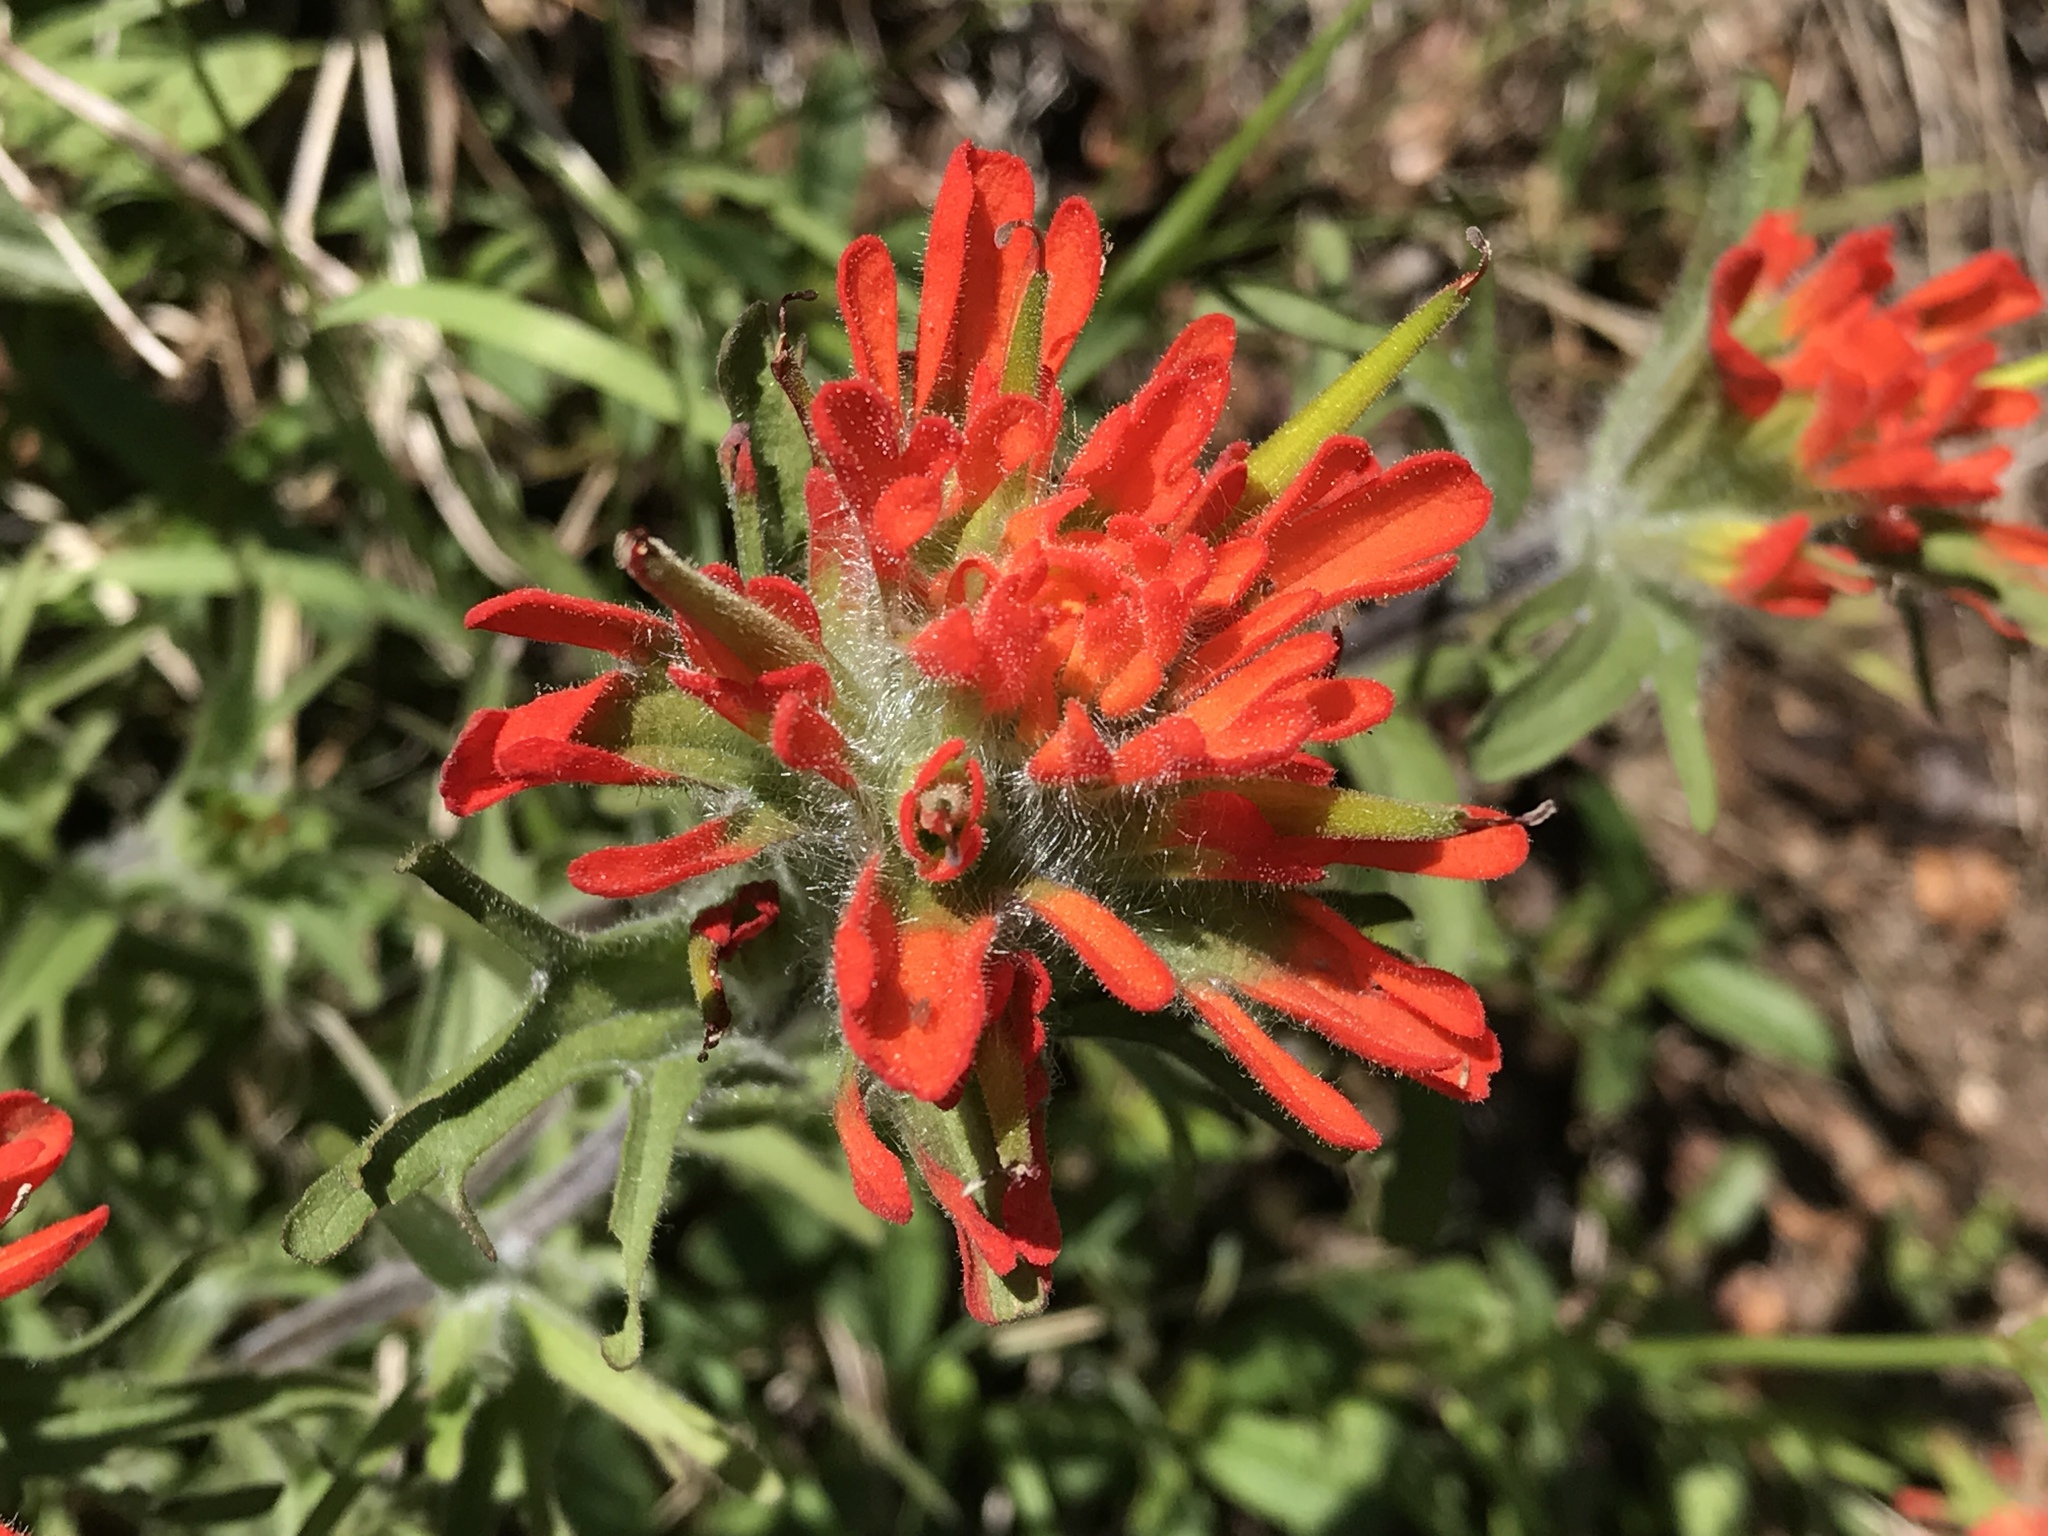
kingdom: Plantae
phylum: Tracheophyta
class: Magnoliopsida
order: Lamiales
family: Orobanchaceae
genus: Castilleja
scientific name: Castilleja hispida
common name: Bristly paintbrush
